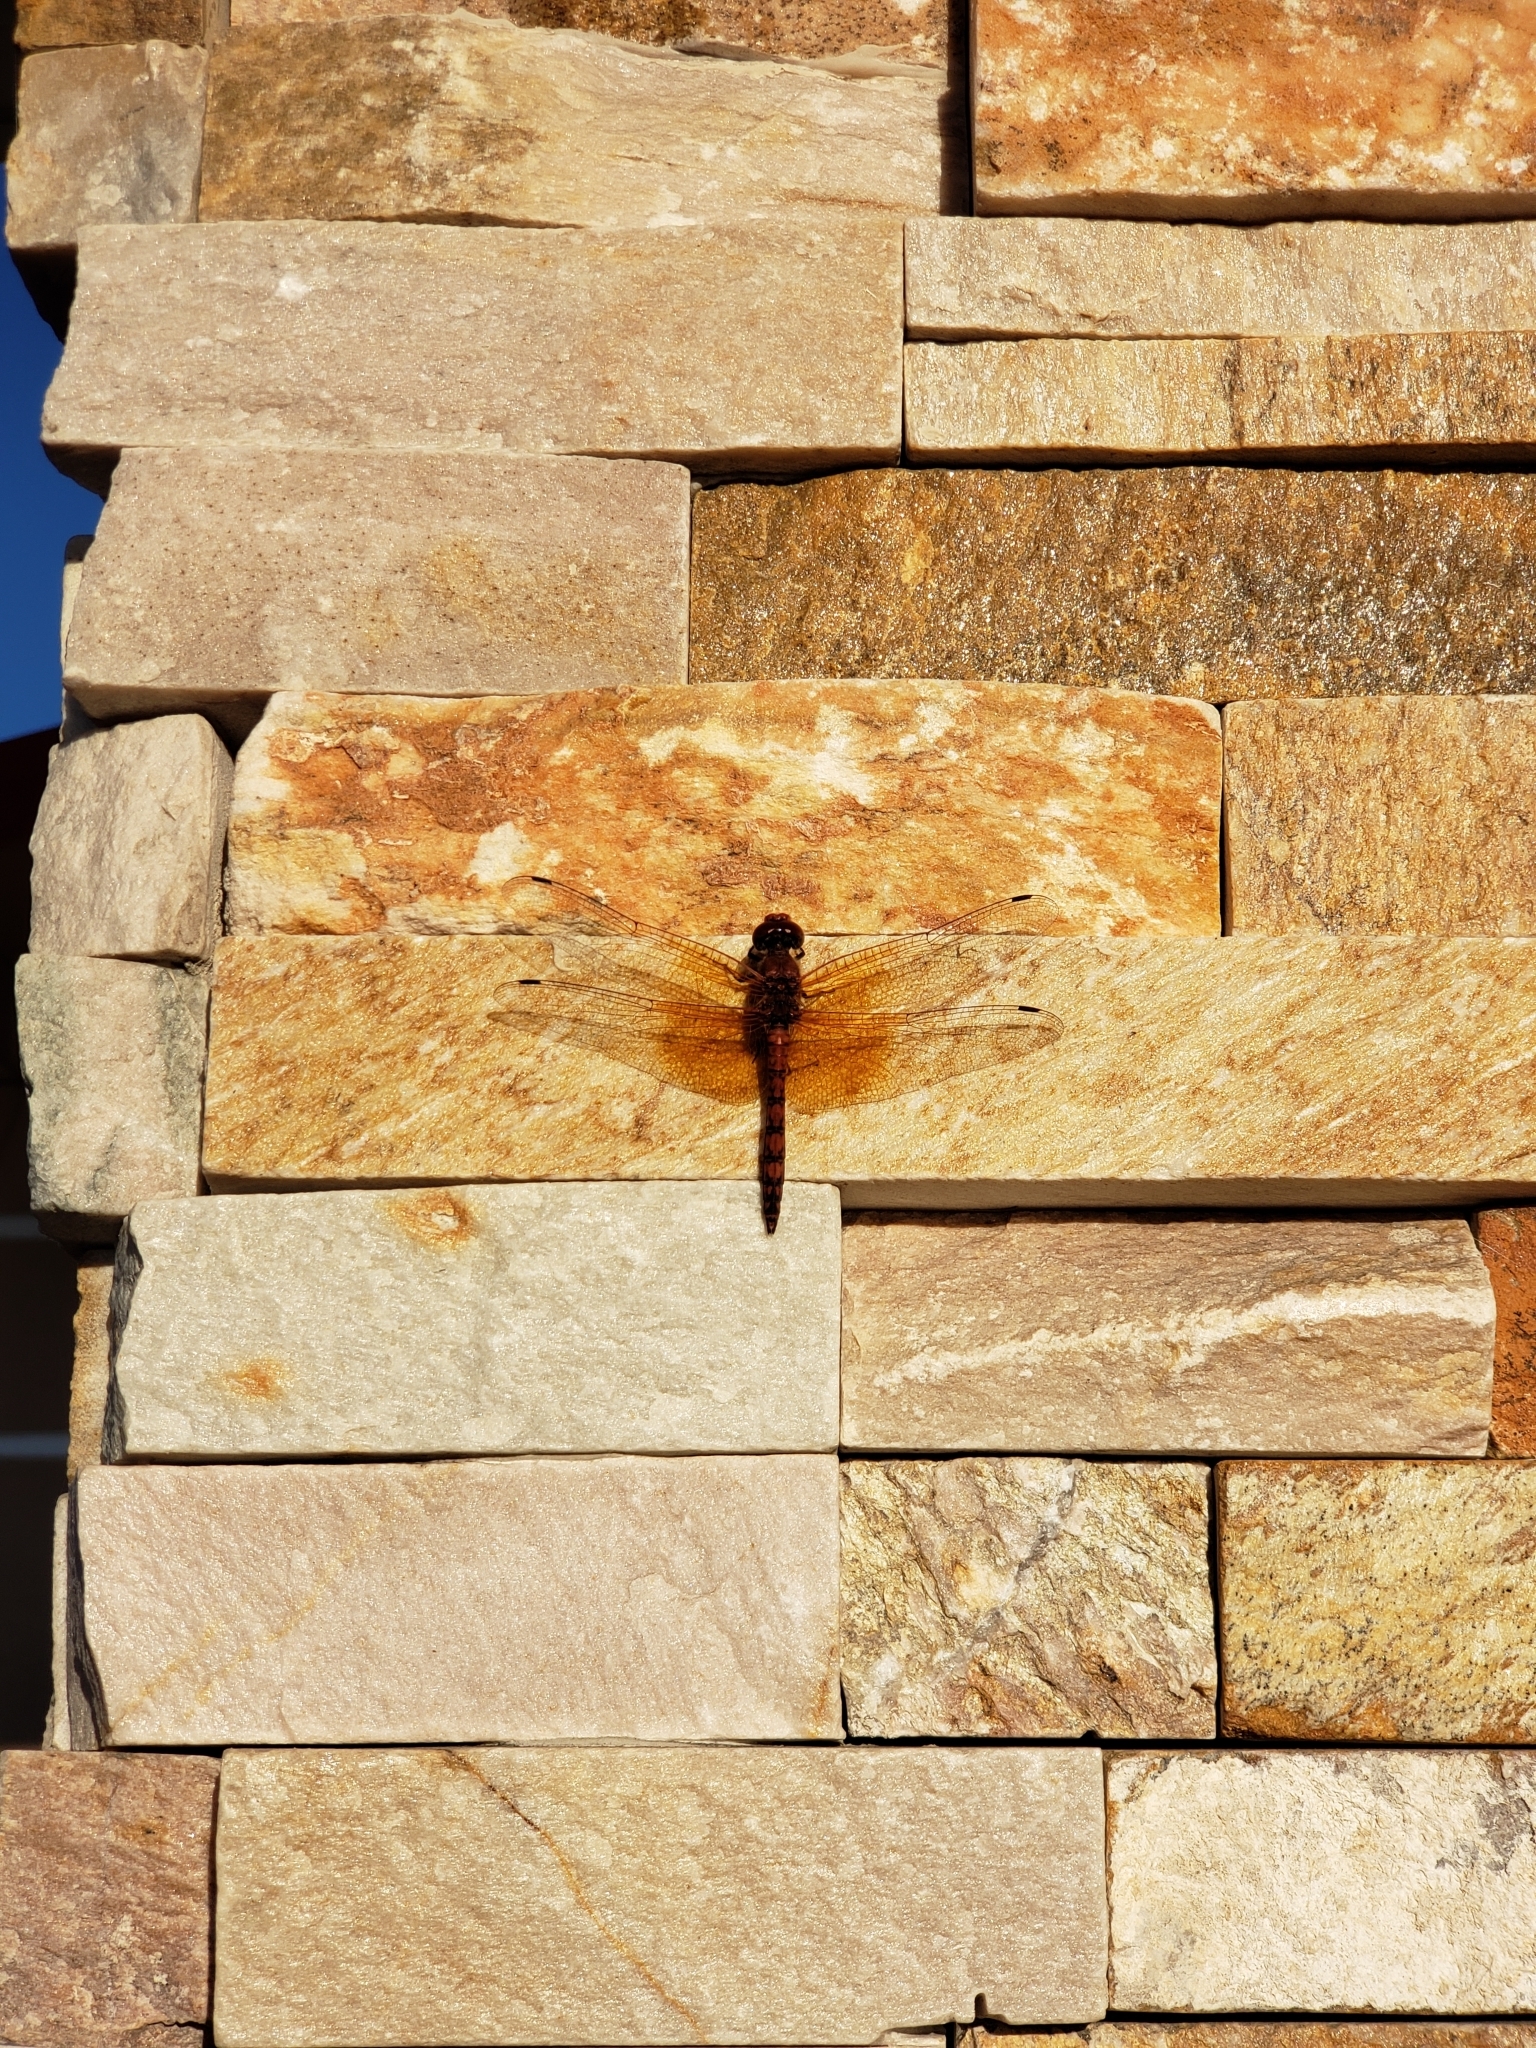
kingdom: Animalia
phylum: Arthropoda
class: Insecta
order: Odonata
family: Libellulidae
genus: Paltothemis
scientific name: Paltothemis lineatipes
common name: Red rock skimmer
